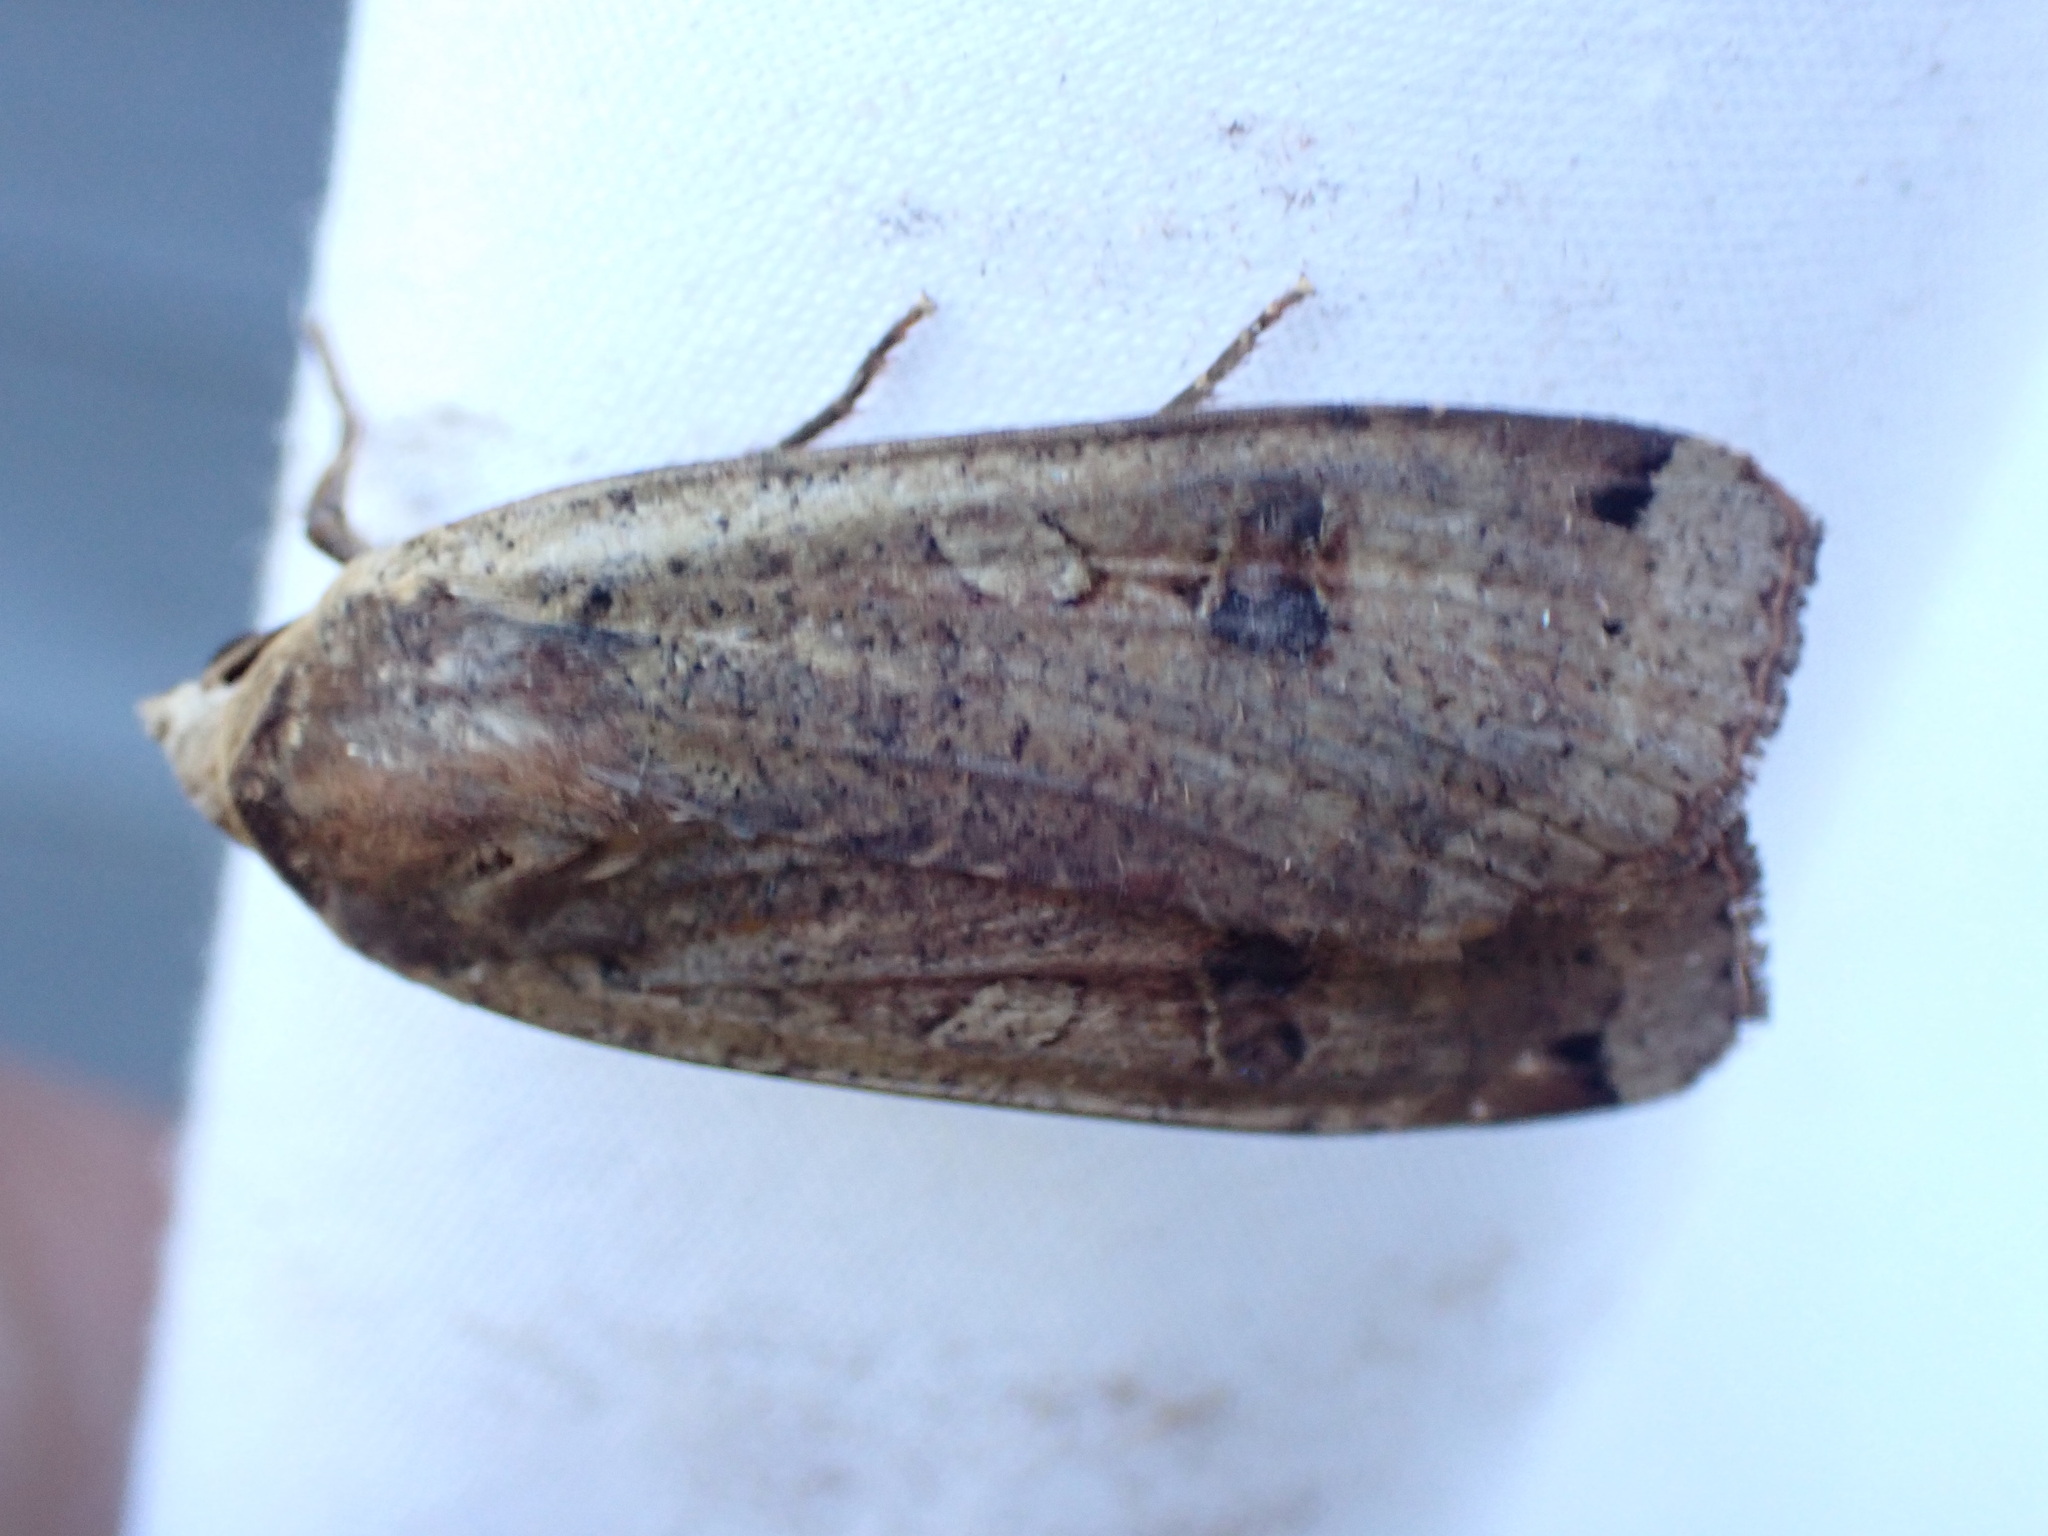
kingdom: Animalia
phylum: Arthropoda
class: Insecta
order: Lepidoptera
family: Noctuidae
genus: Noctua
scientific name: Noctua pronuba
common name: Large yellow underwing
